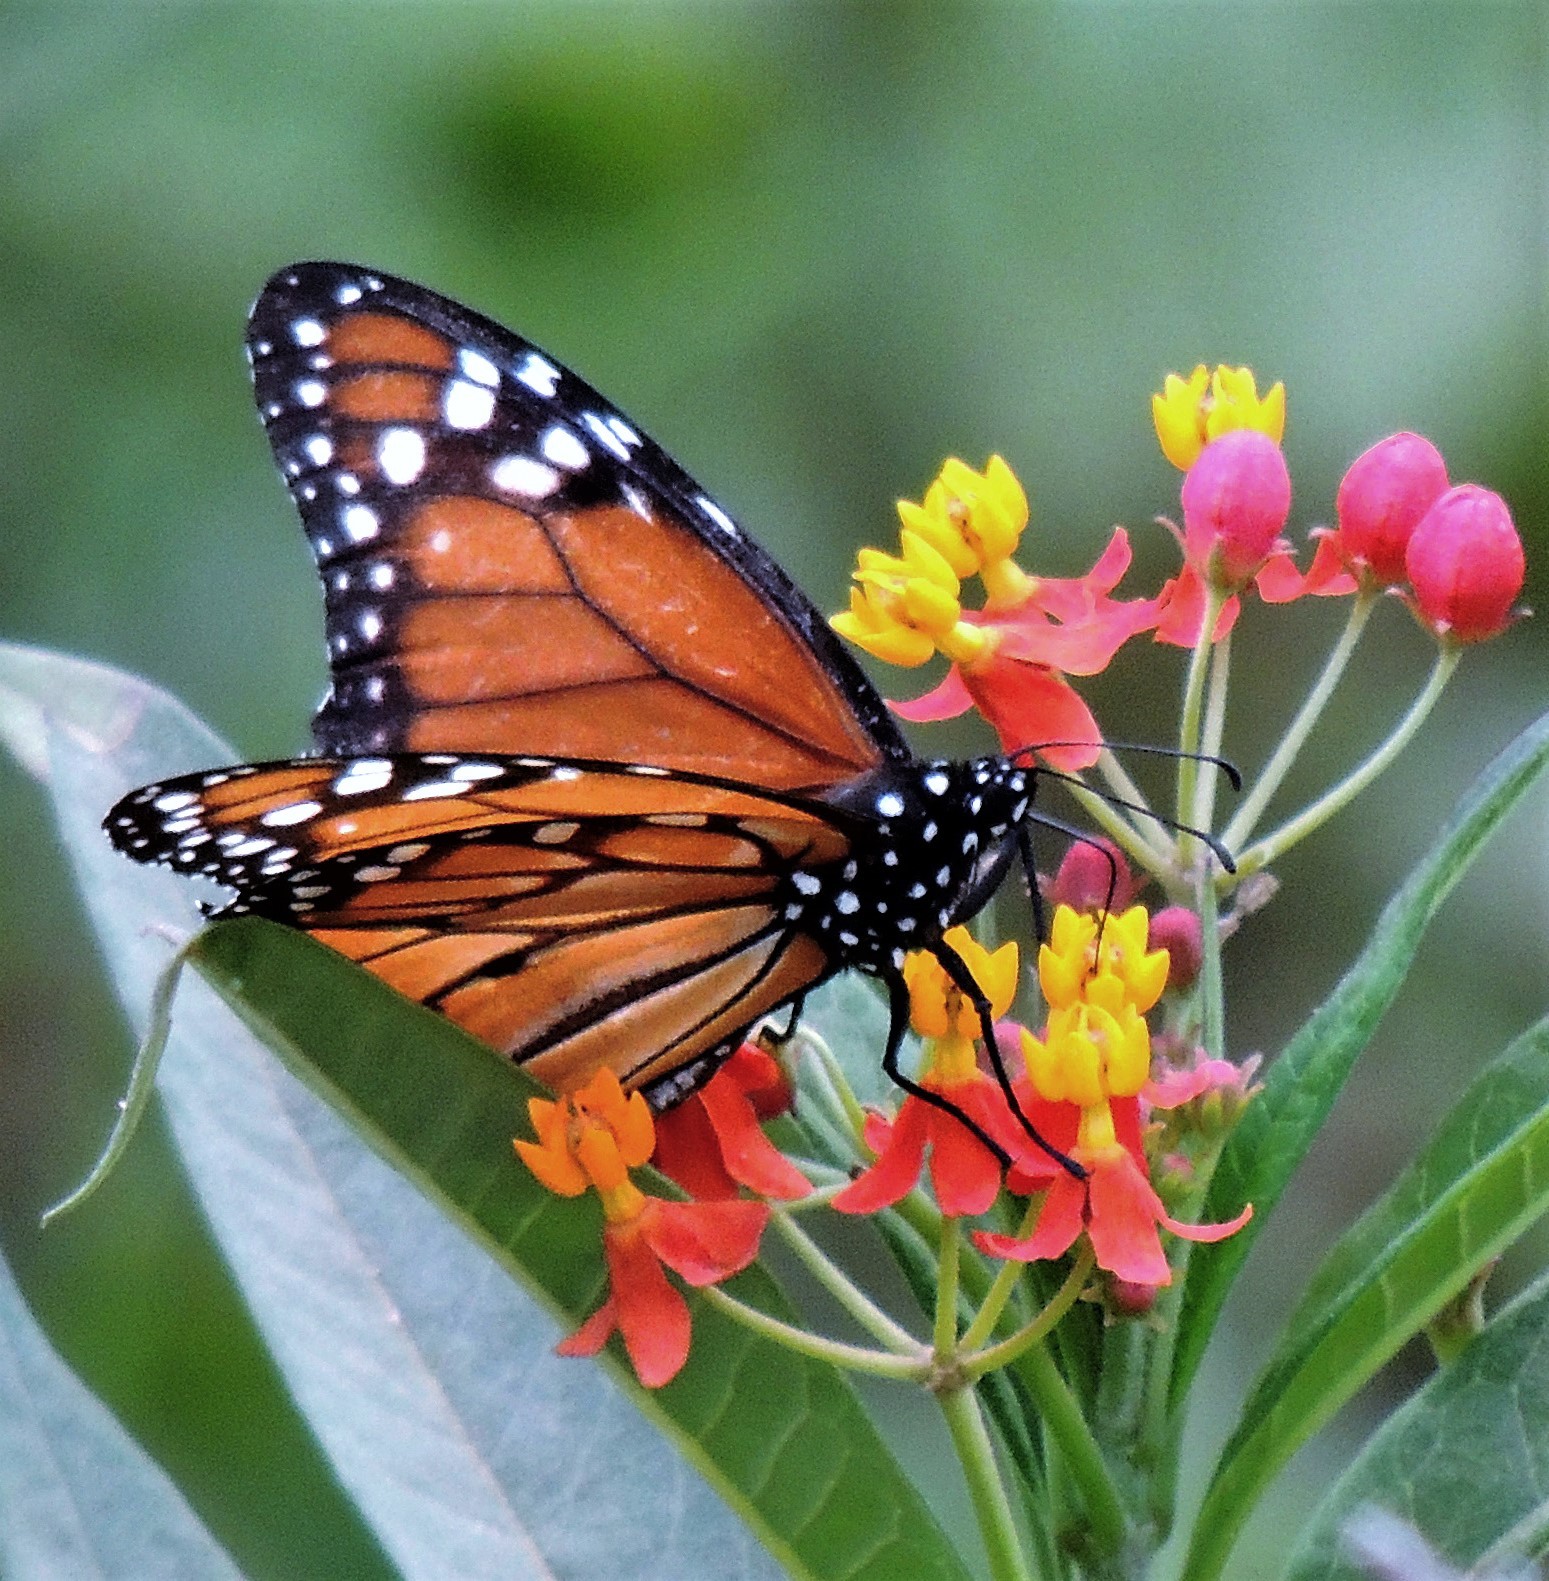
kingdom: Animalia
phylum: Arthropoda
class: Insecta
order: Lepidoptera
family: Nymphalidae
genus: Danaus
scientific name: Danaus erippus
